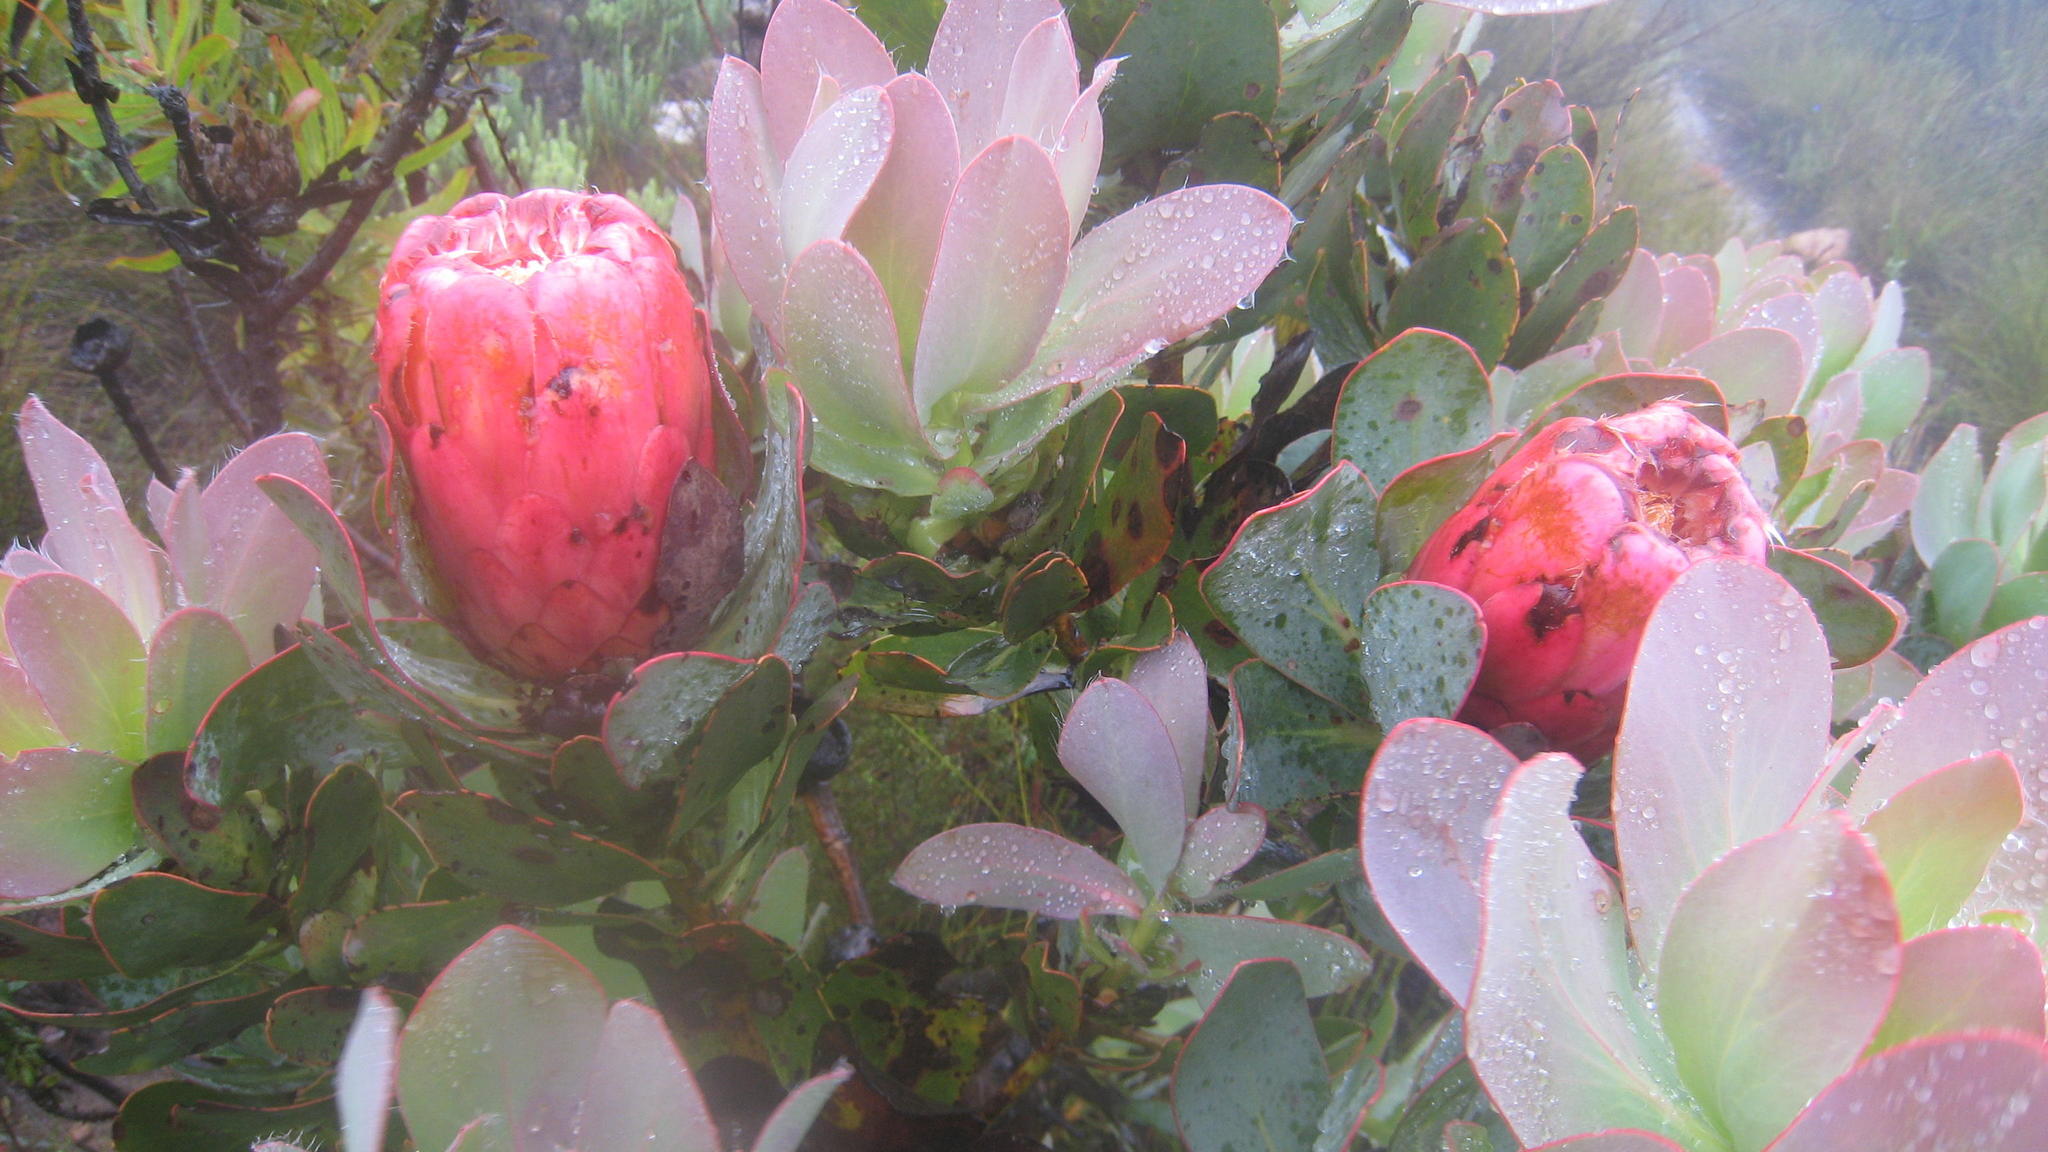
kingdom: Plantae
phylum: Tracheophyta
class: Magnoliopsida
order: Proteales
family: Proteaceae
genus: Protea
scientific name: Protea grandiceps
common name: Red sugarbush
